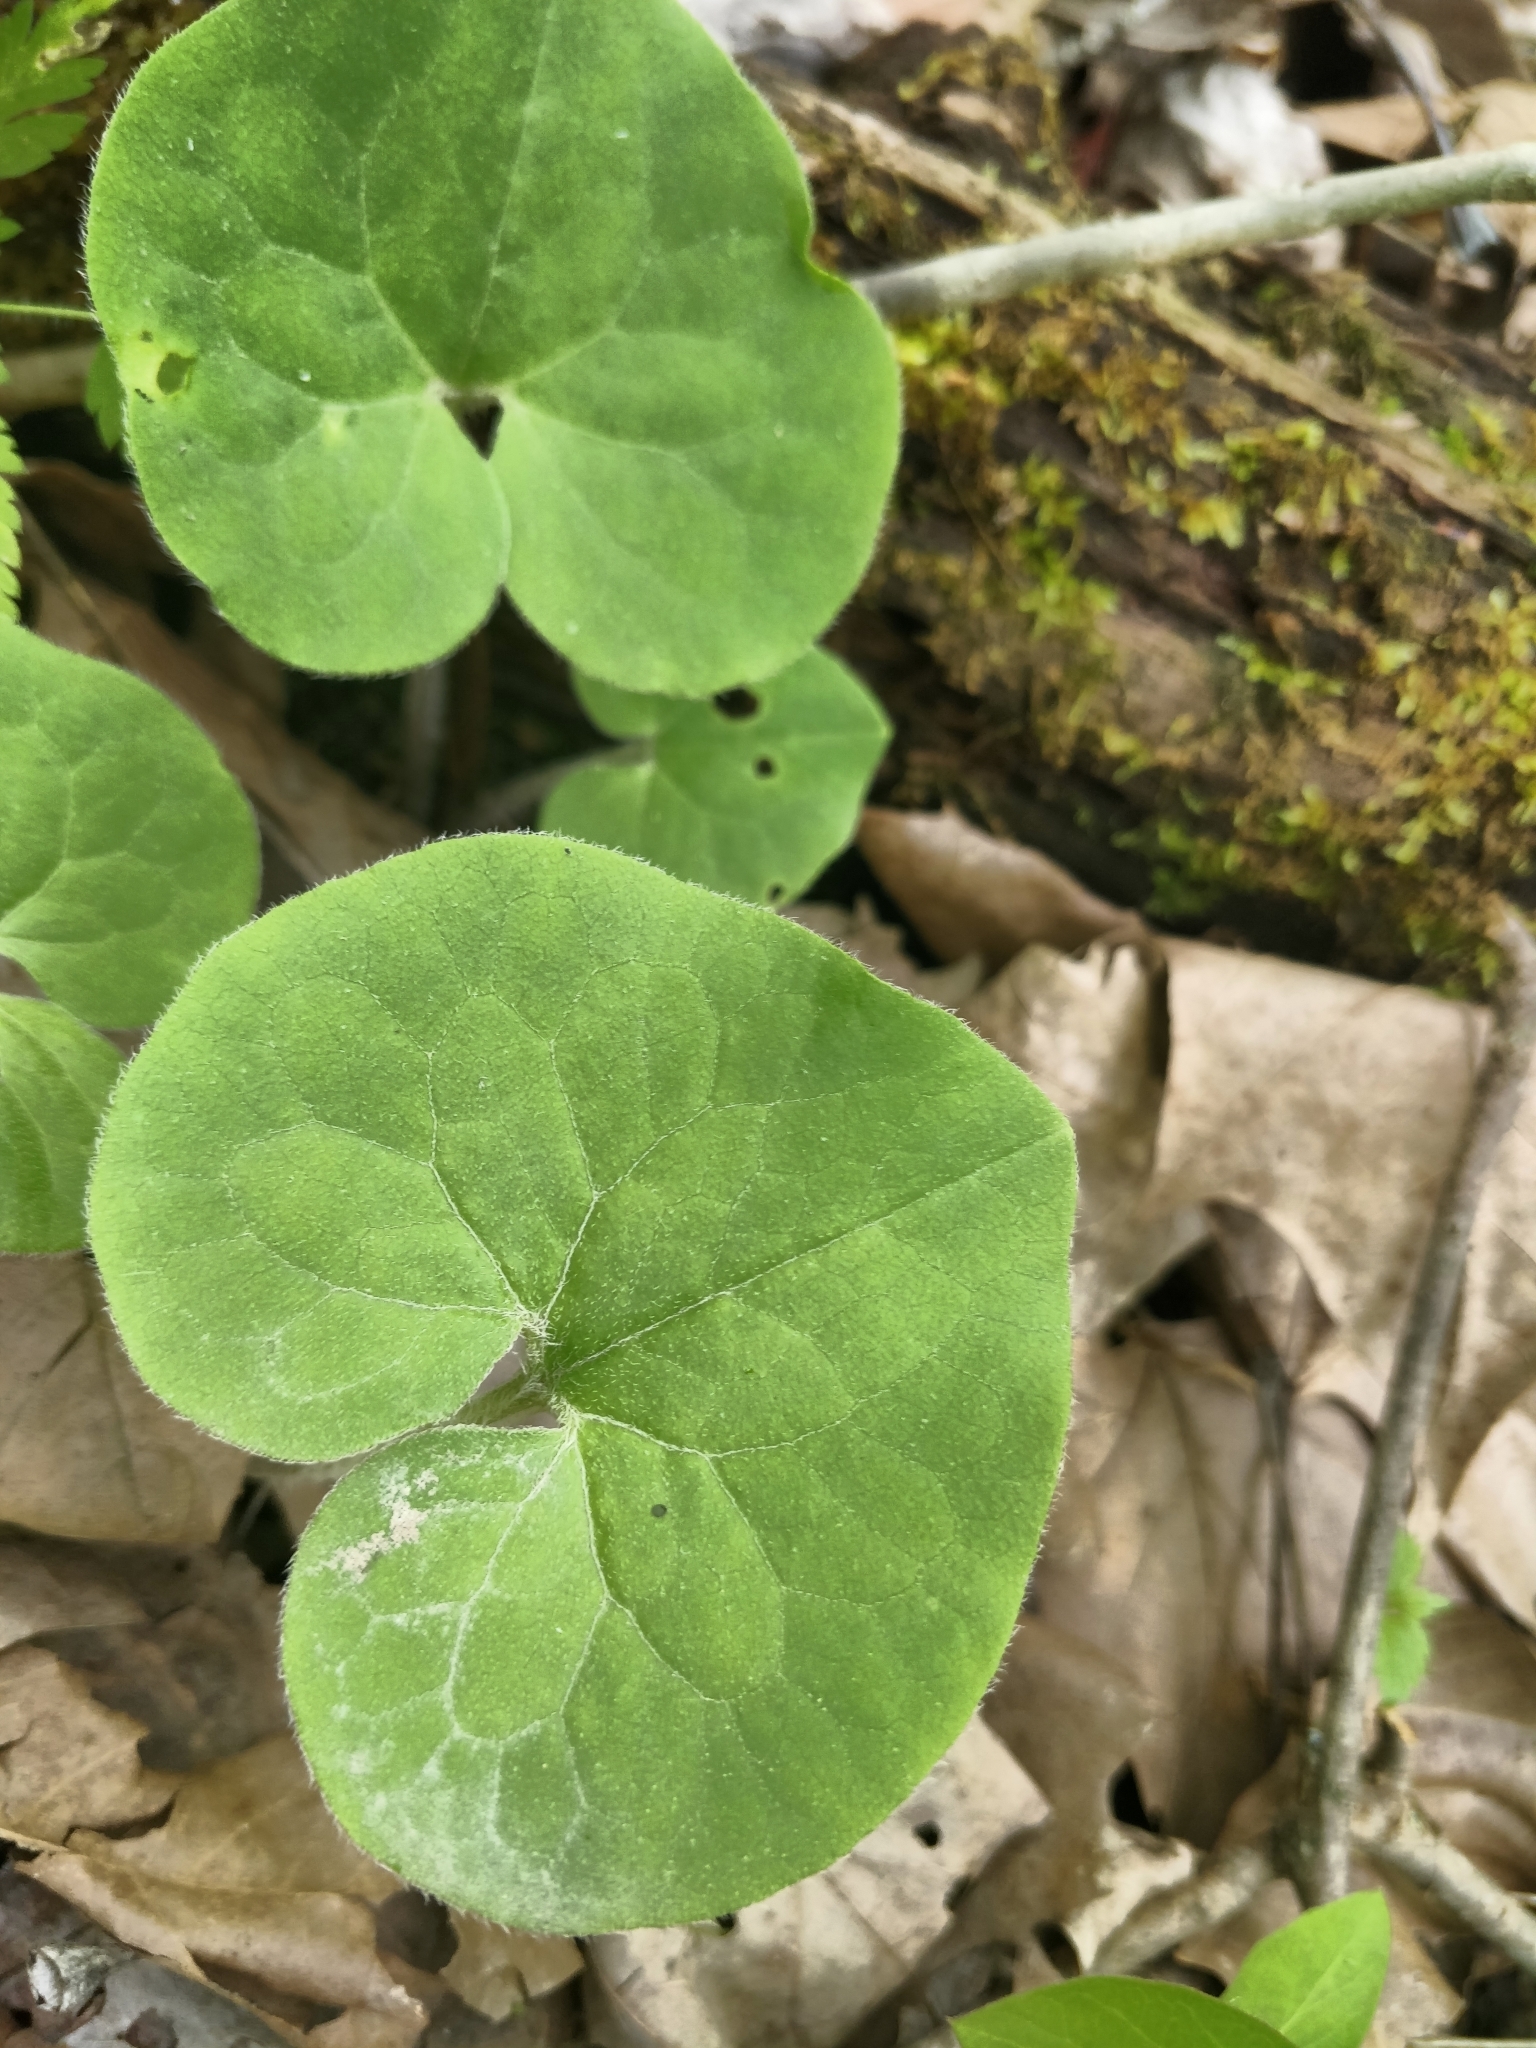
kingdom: Plantae
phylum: Tracheophyta
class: Magnoliopsida
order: Piperales
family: Aristolochiaceae
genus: Asarum
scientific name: Asarum canadense
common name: Wild ginger
